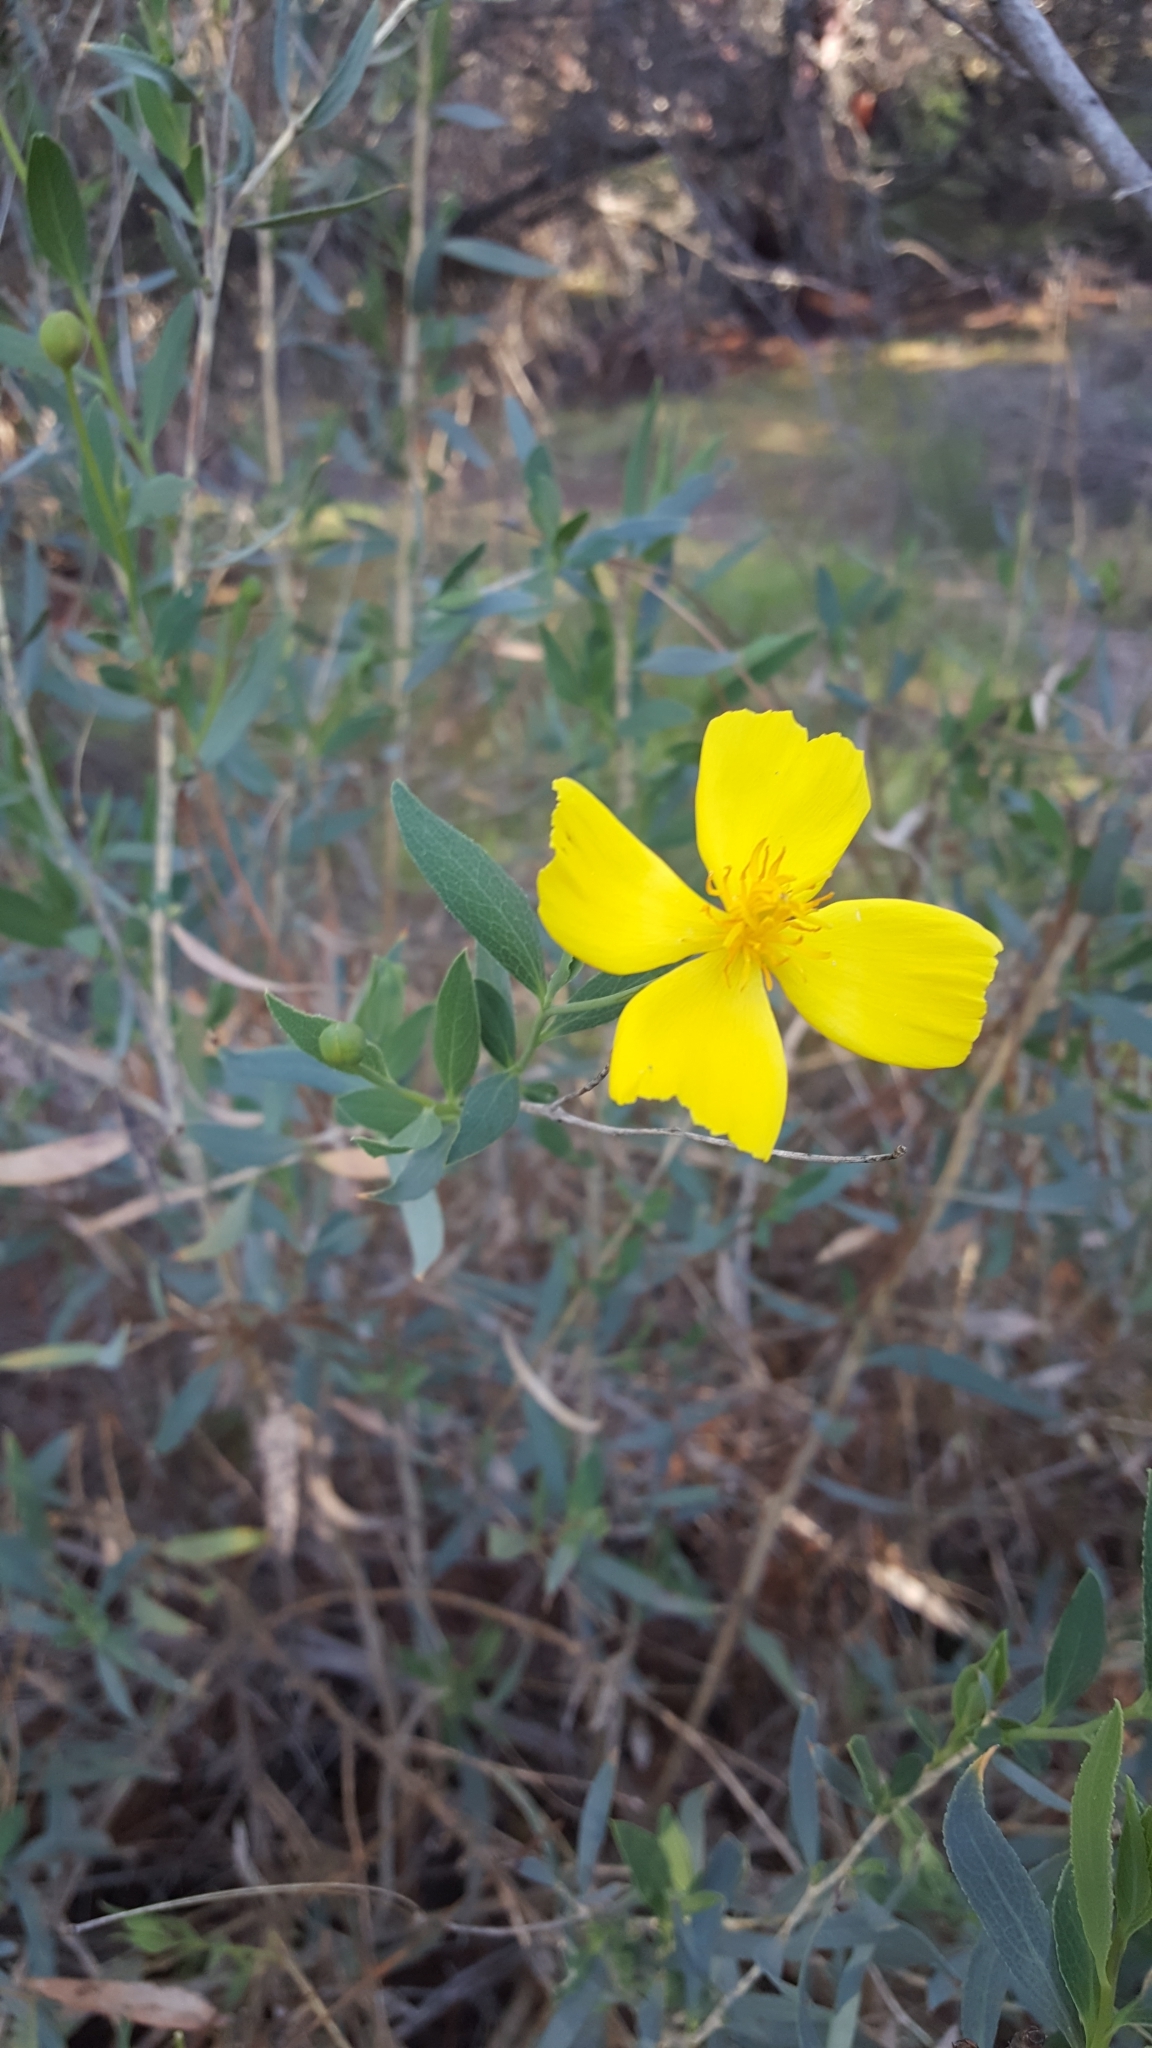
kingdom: Plantae
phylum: Tracheophyta
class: Magnoliopsida
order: Ranunculales
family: Papaveraceae
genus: Dendromecon
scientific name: Dendromecon rigida
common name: Tree poppy
